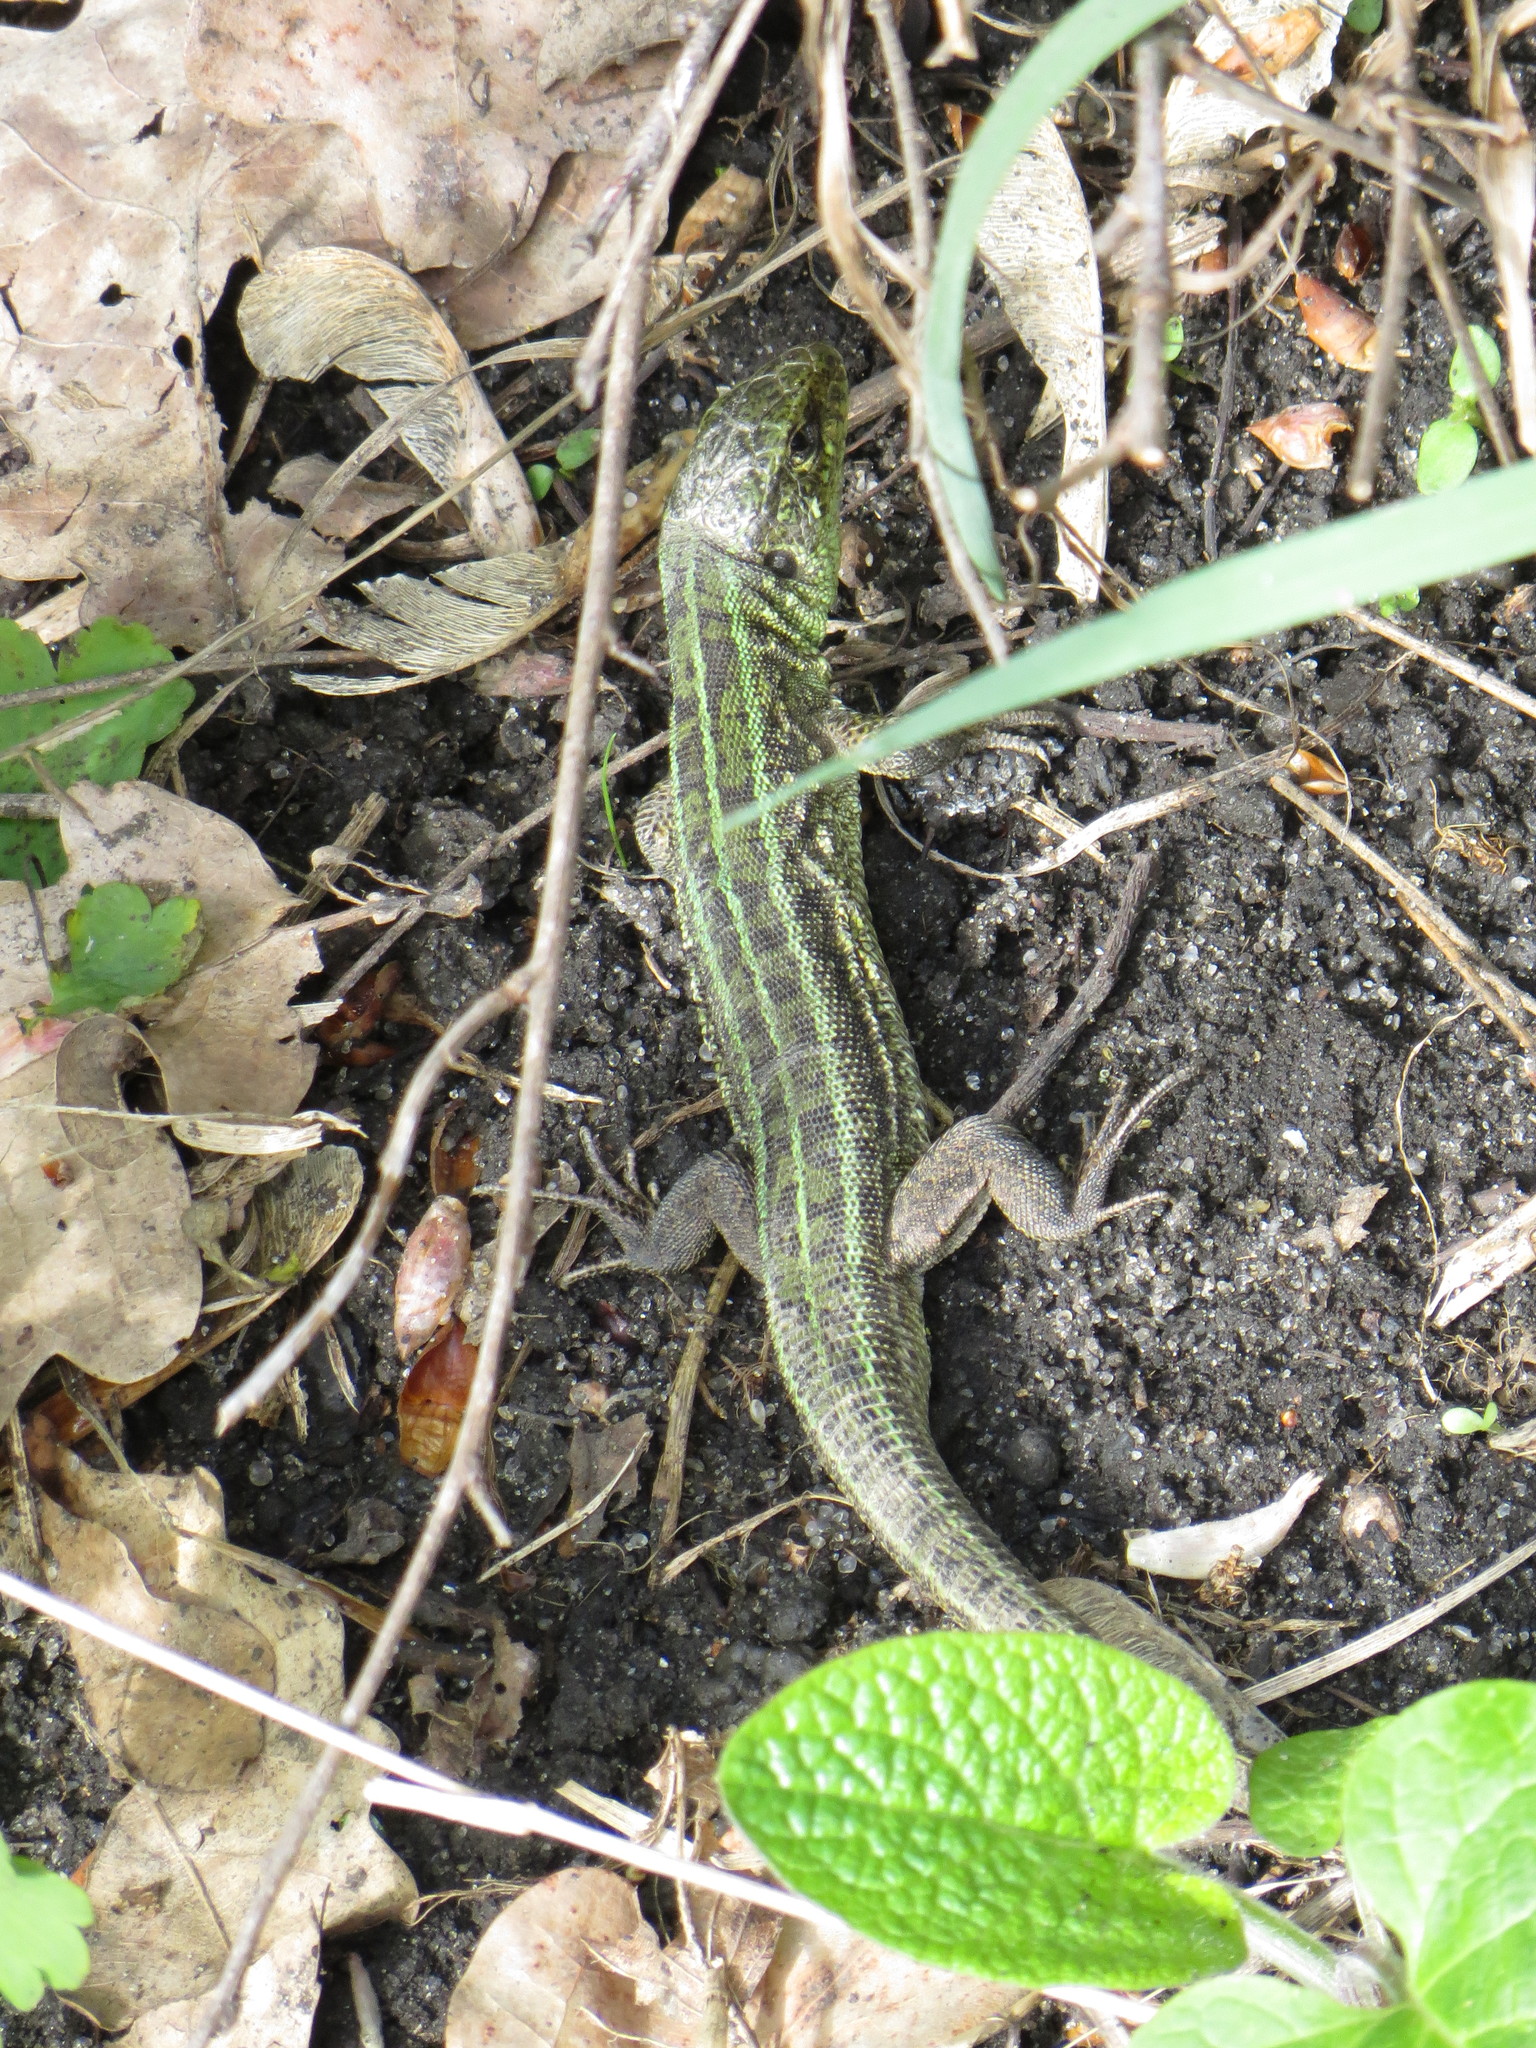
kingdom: Animalia
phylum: Chordata
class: Squamata
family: Lacertidae
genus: Lacerta
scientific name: Lacerta agilis
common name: Sand lizard
